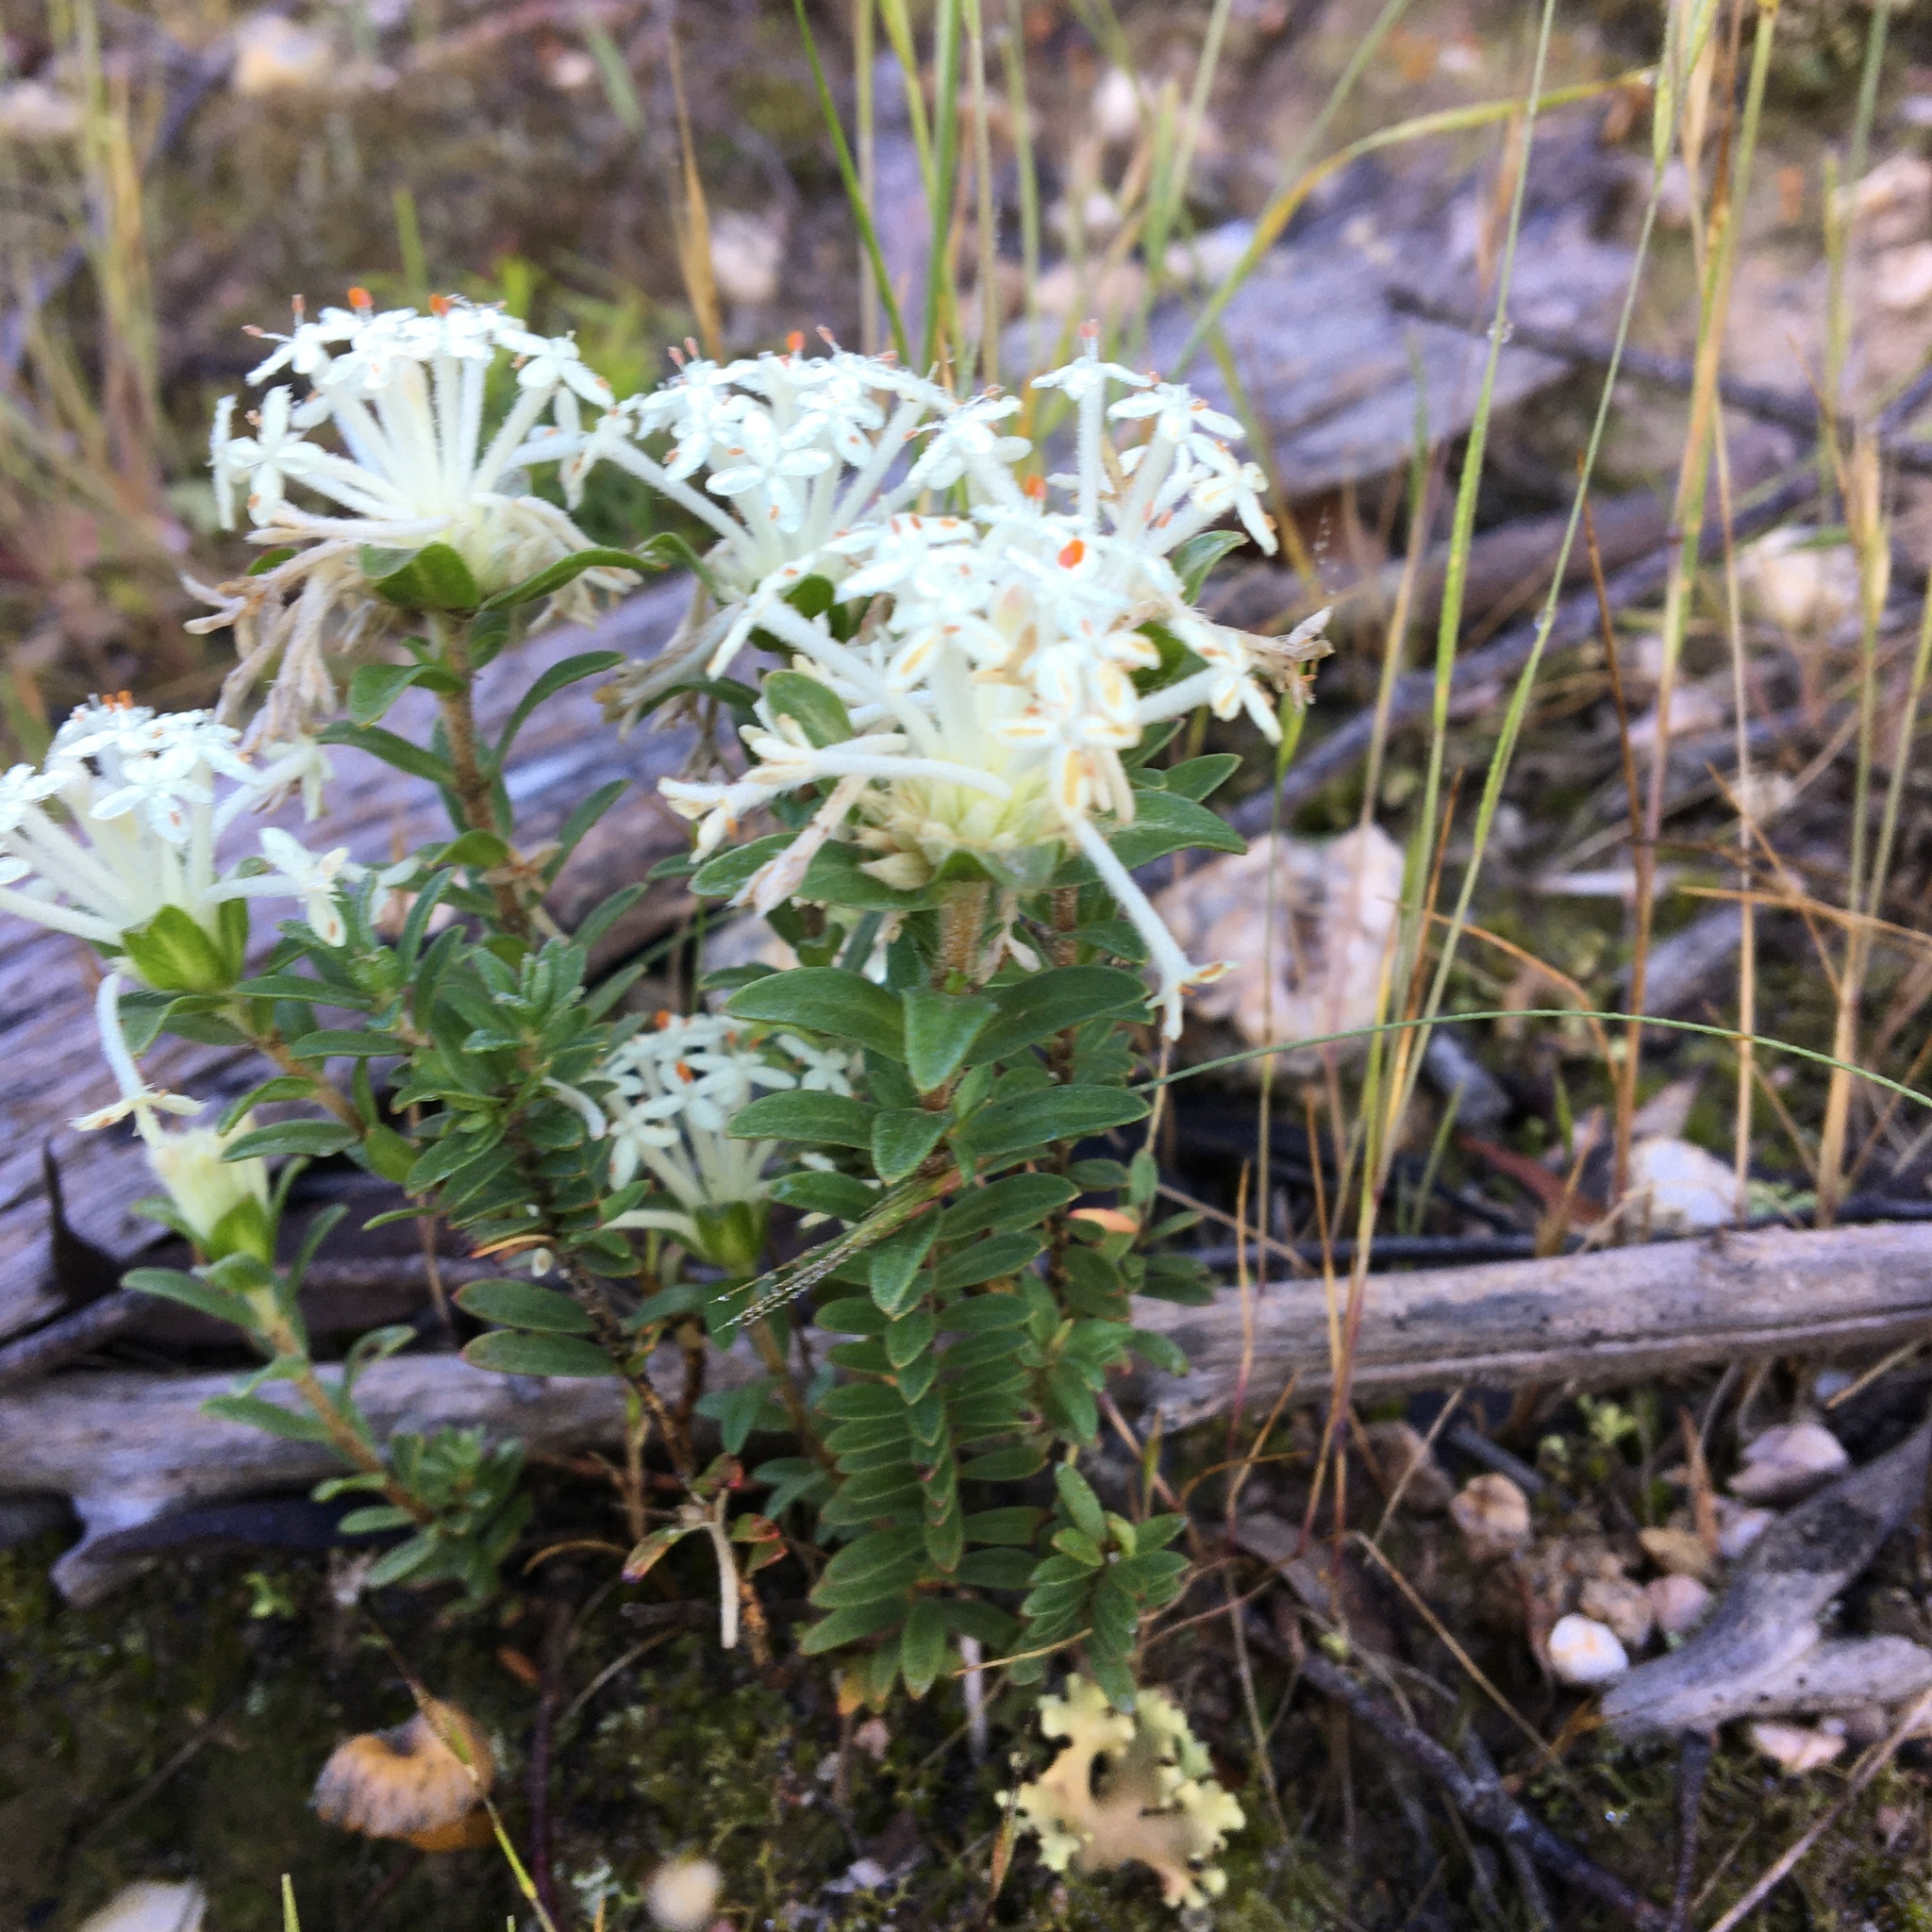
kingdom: Plantae
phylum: Tracheophyta
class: Magnoliopsida
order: Malvales
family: Thymelaeaceae
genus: Pimelea
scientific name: Pimelea humilis
